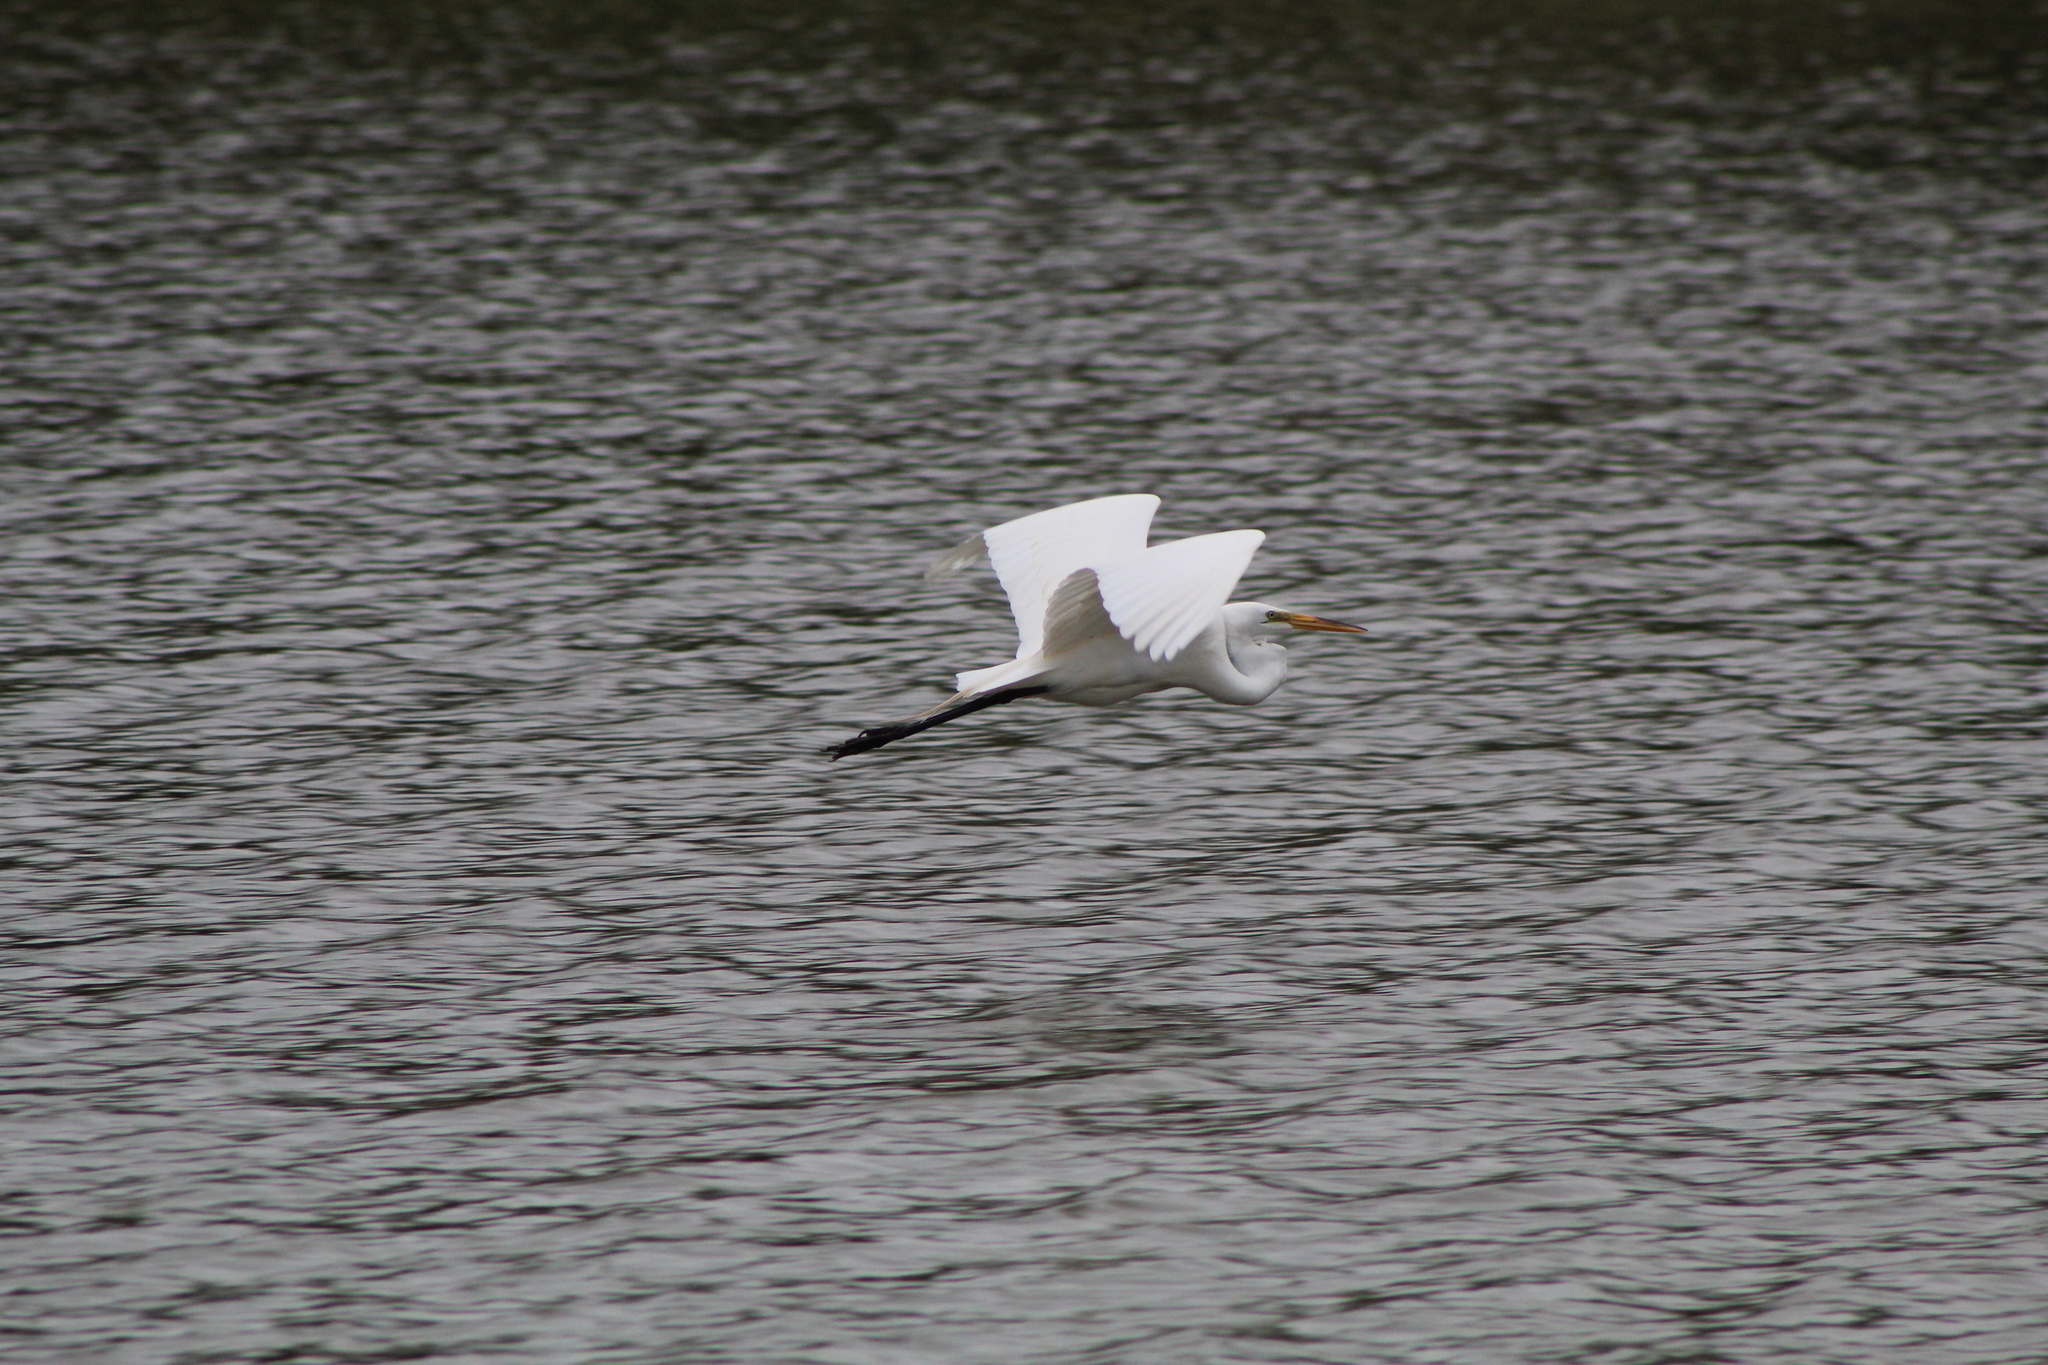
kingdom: Animalia
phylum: Chordata
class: Aves
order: Pelecaniformes
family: Ardeidae
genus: Ardea
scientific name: Ardea alba
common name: Great egret
